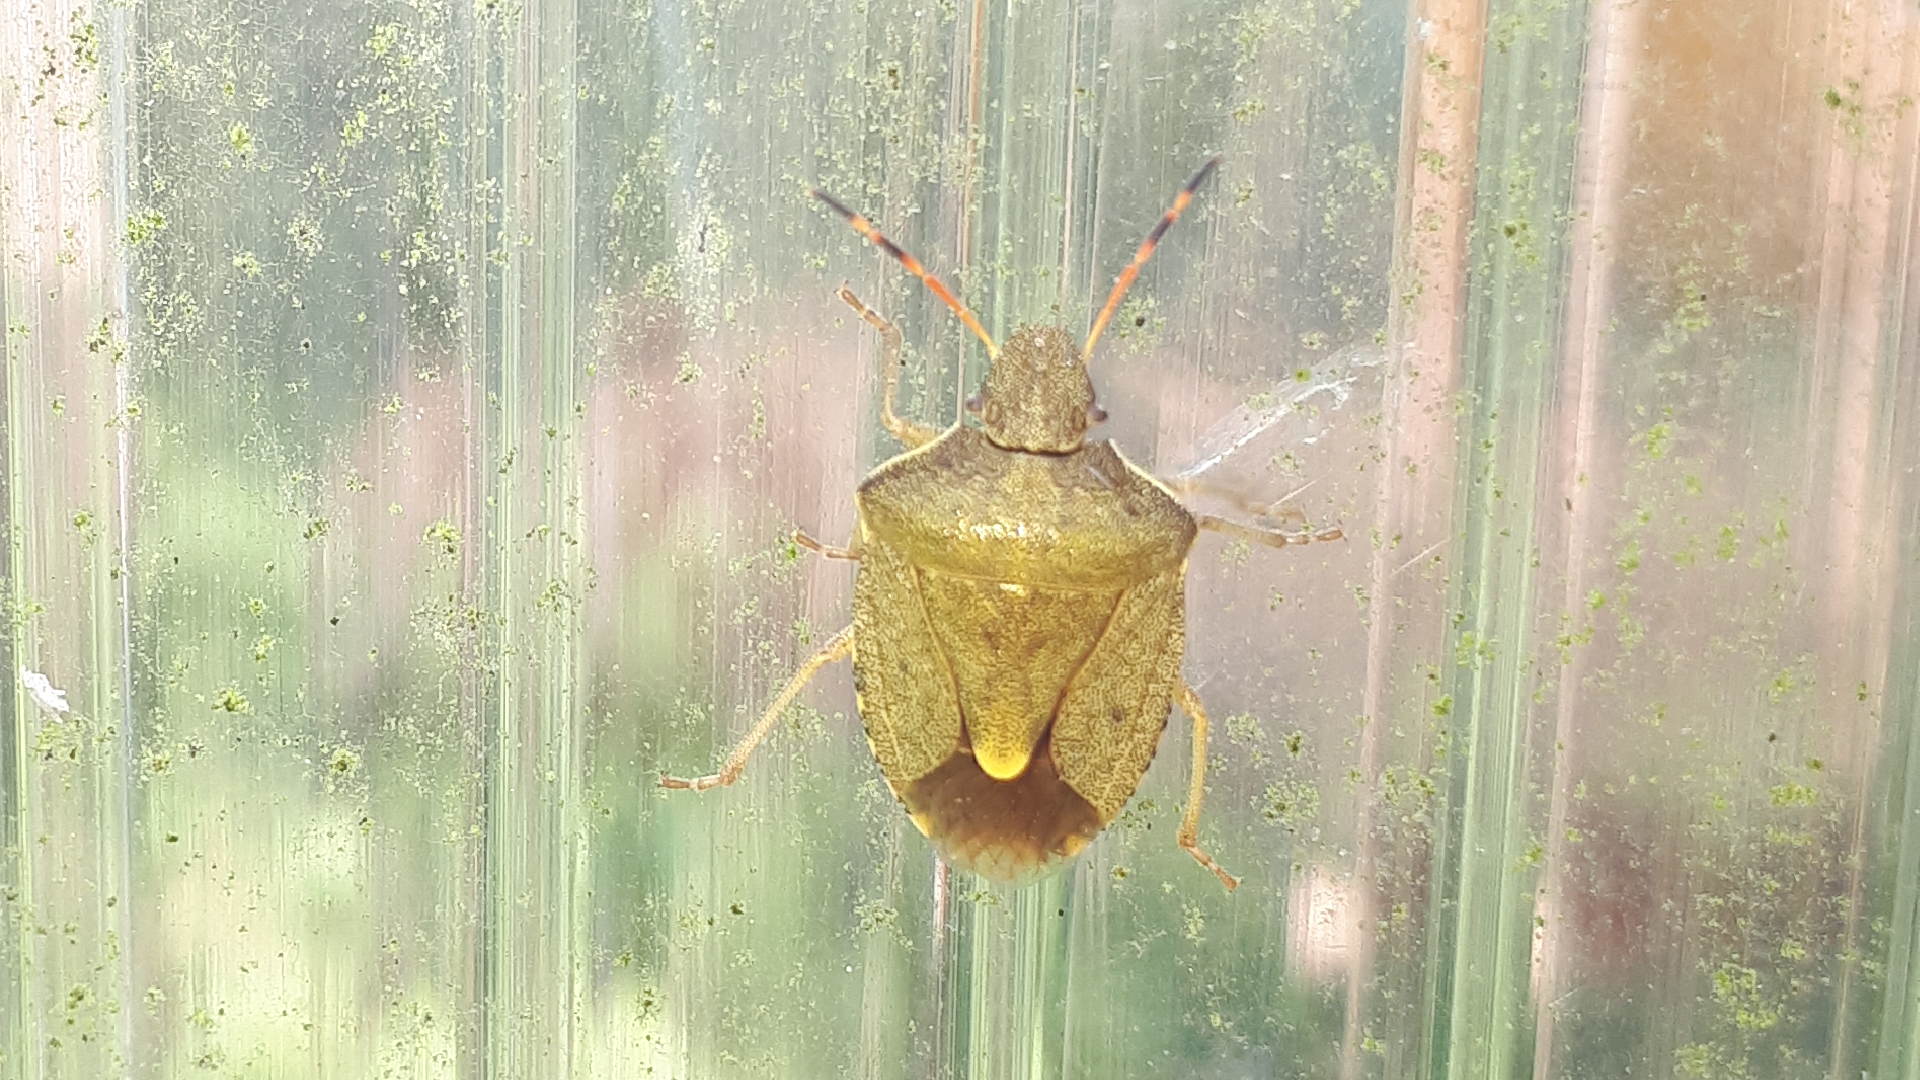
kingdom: Animalia
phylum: Arthropoda
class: Insecta
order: Hemiptera
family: Pentatomidae
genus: Holcostethus
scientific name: Holcostethus strictus
